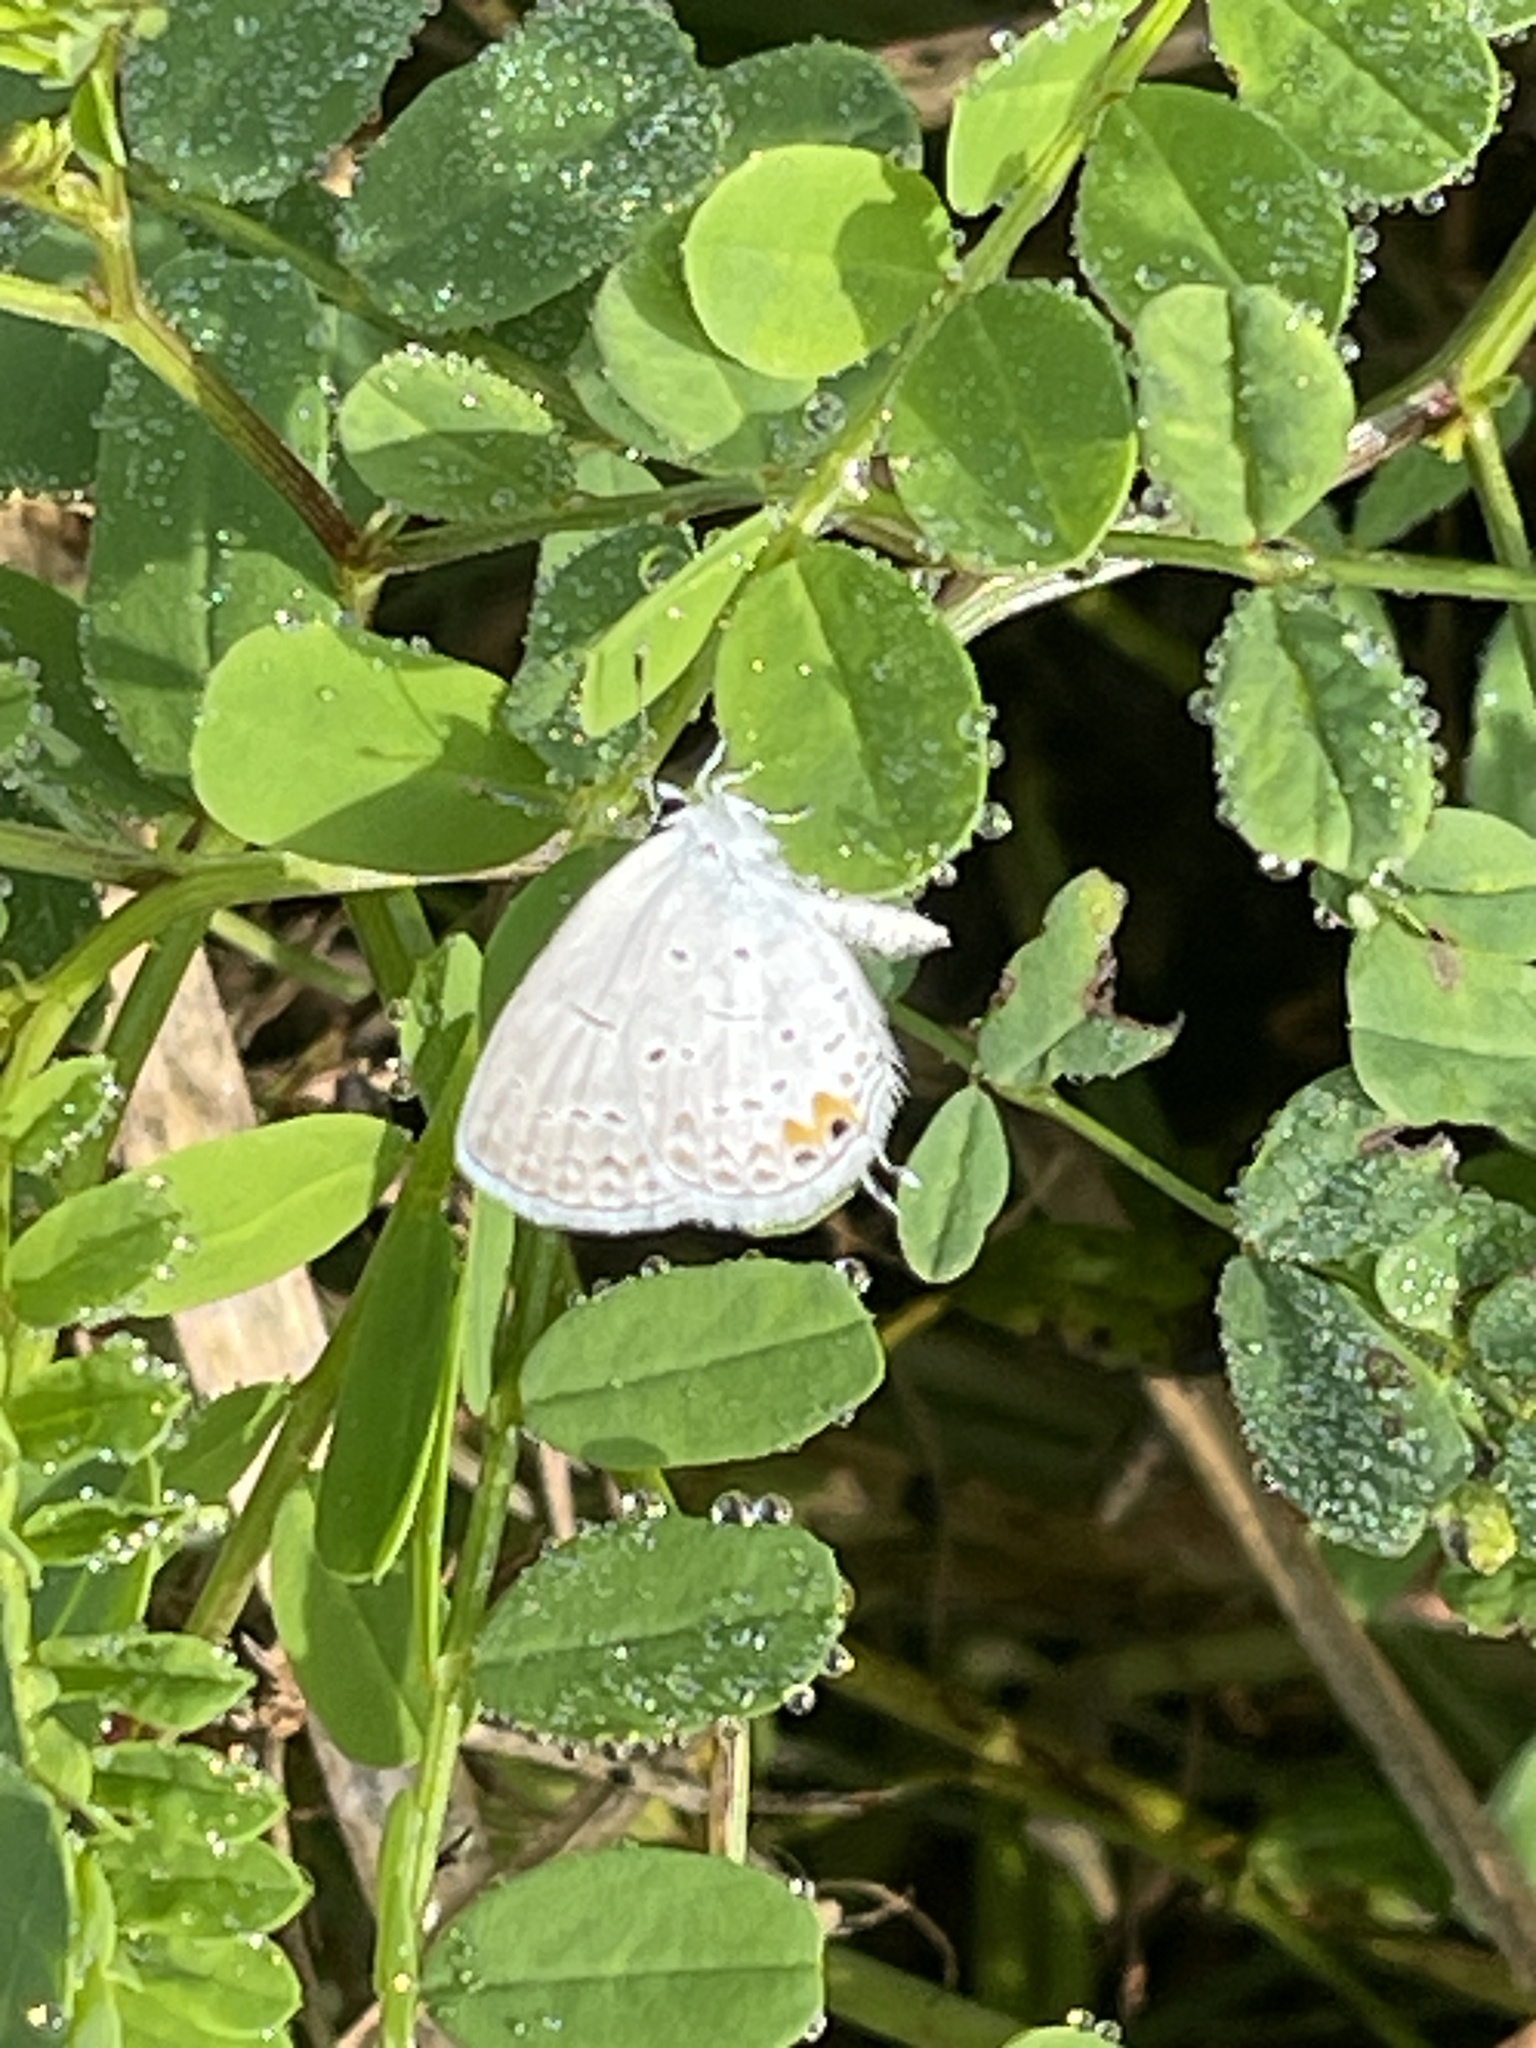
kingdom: Animalia
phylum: Arthropoda
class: Insecta
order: Lepidoptera
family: Lycaenidae
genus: Elkalyce
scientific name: Elkalyce comyntas
